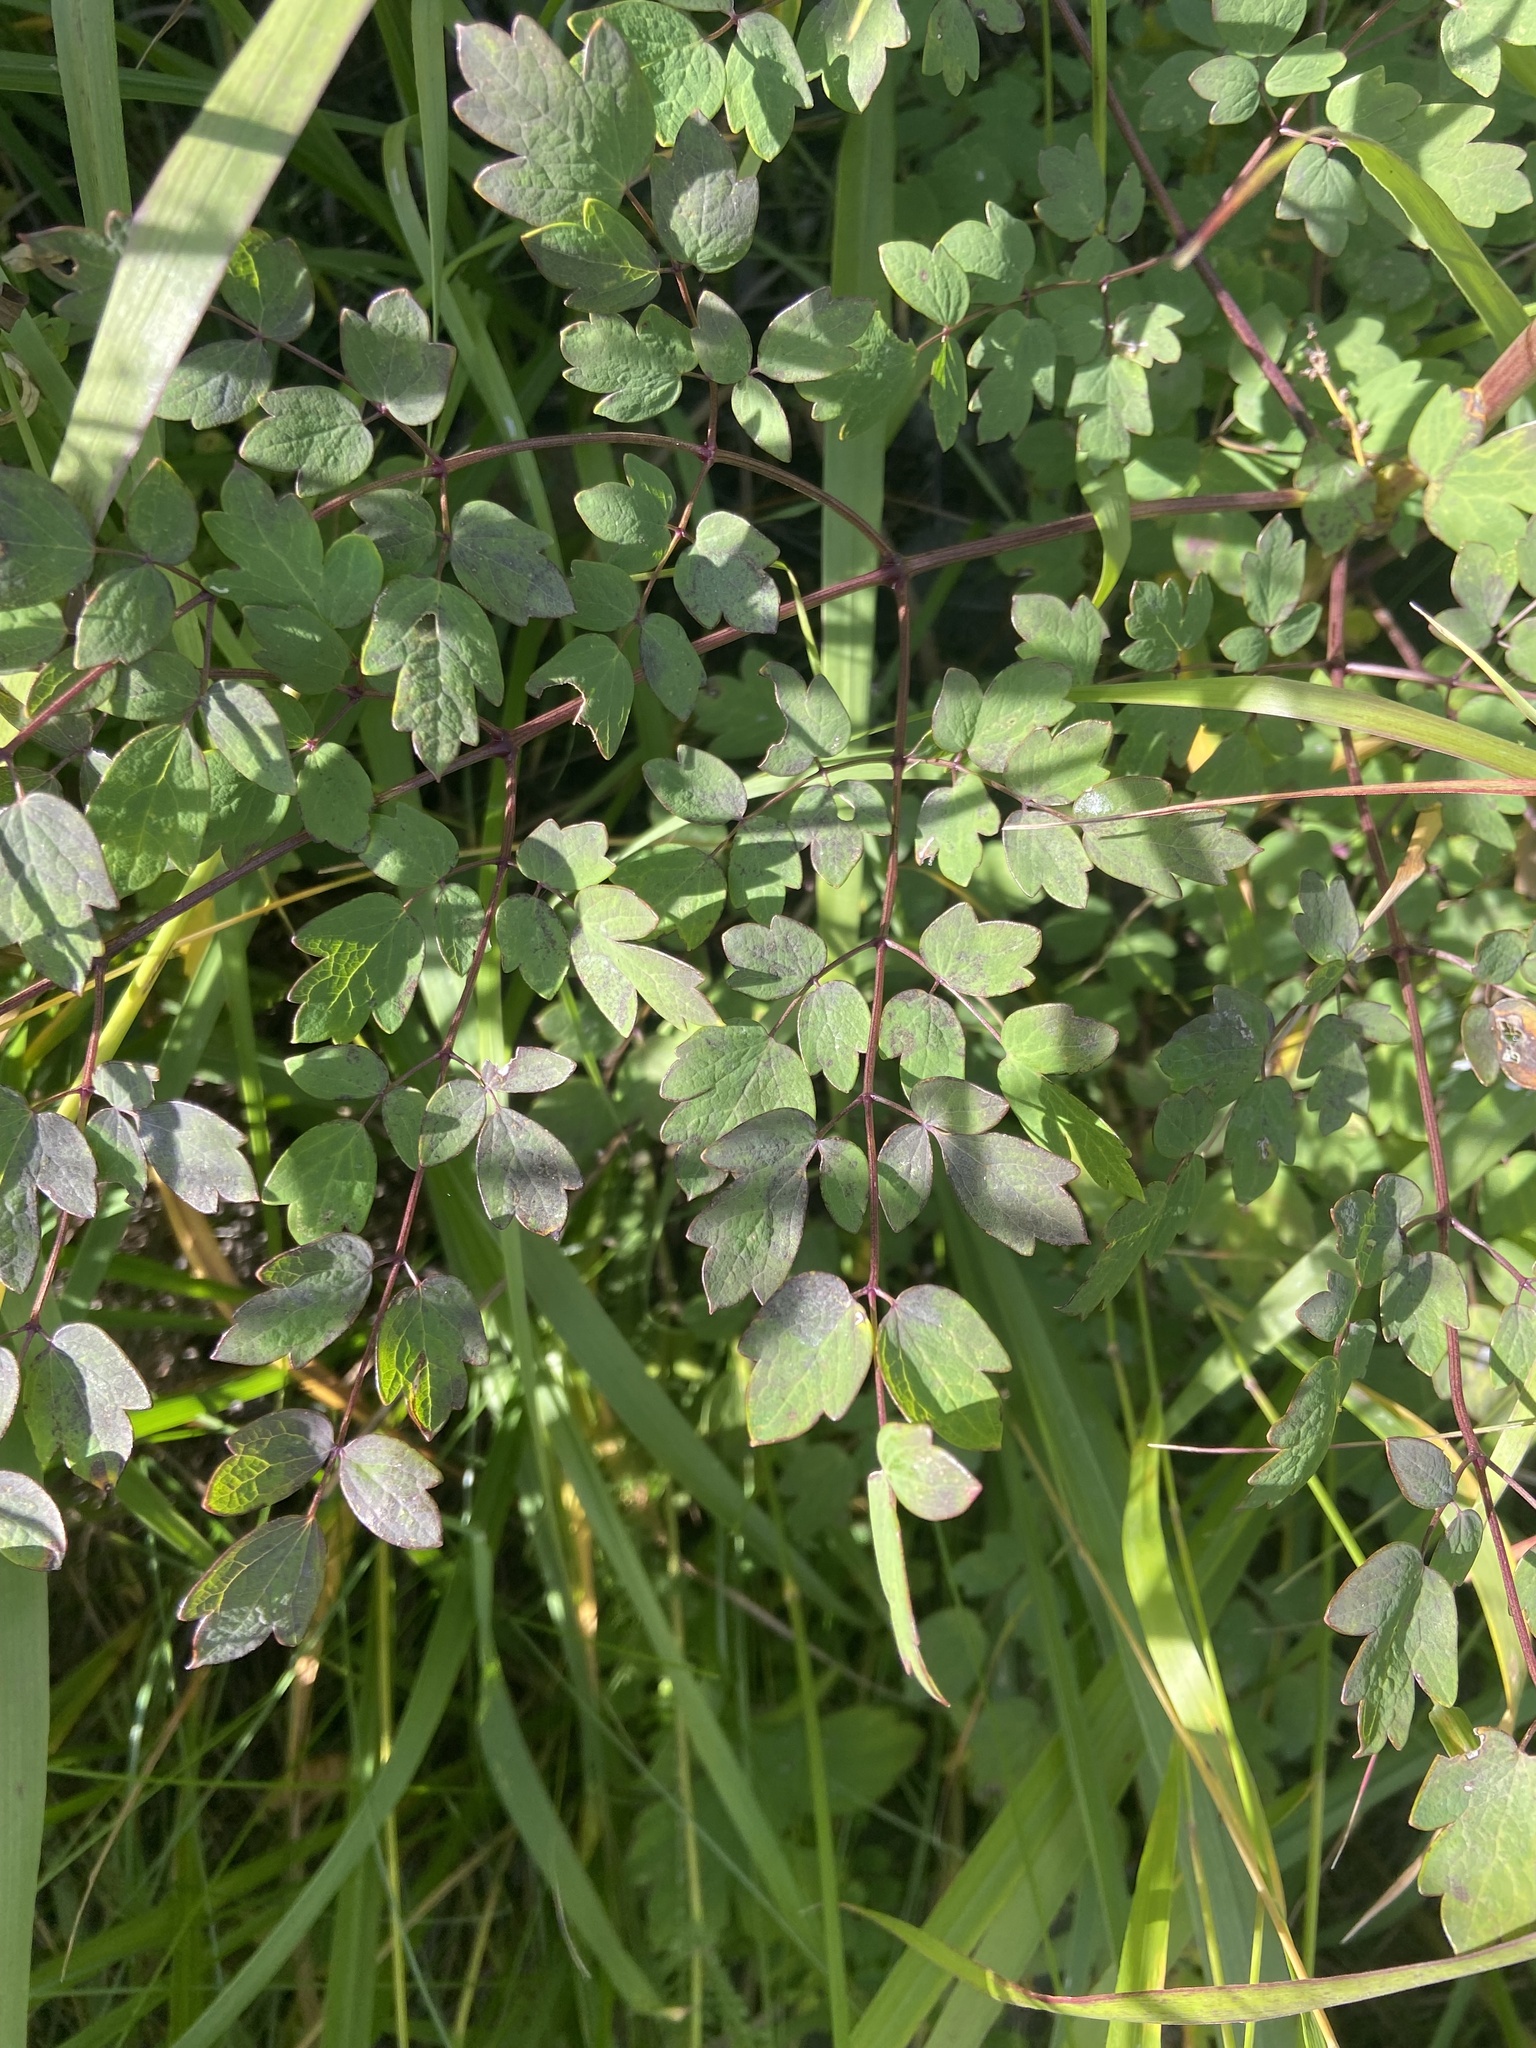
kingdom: Plantae
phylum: Tracheophyta
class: Magnoliopsida
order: Ranunculales
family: Ranunculaceae
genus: Thalictrum
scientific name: Thalictrum minus
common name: Lesser meadow-rue
